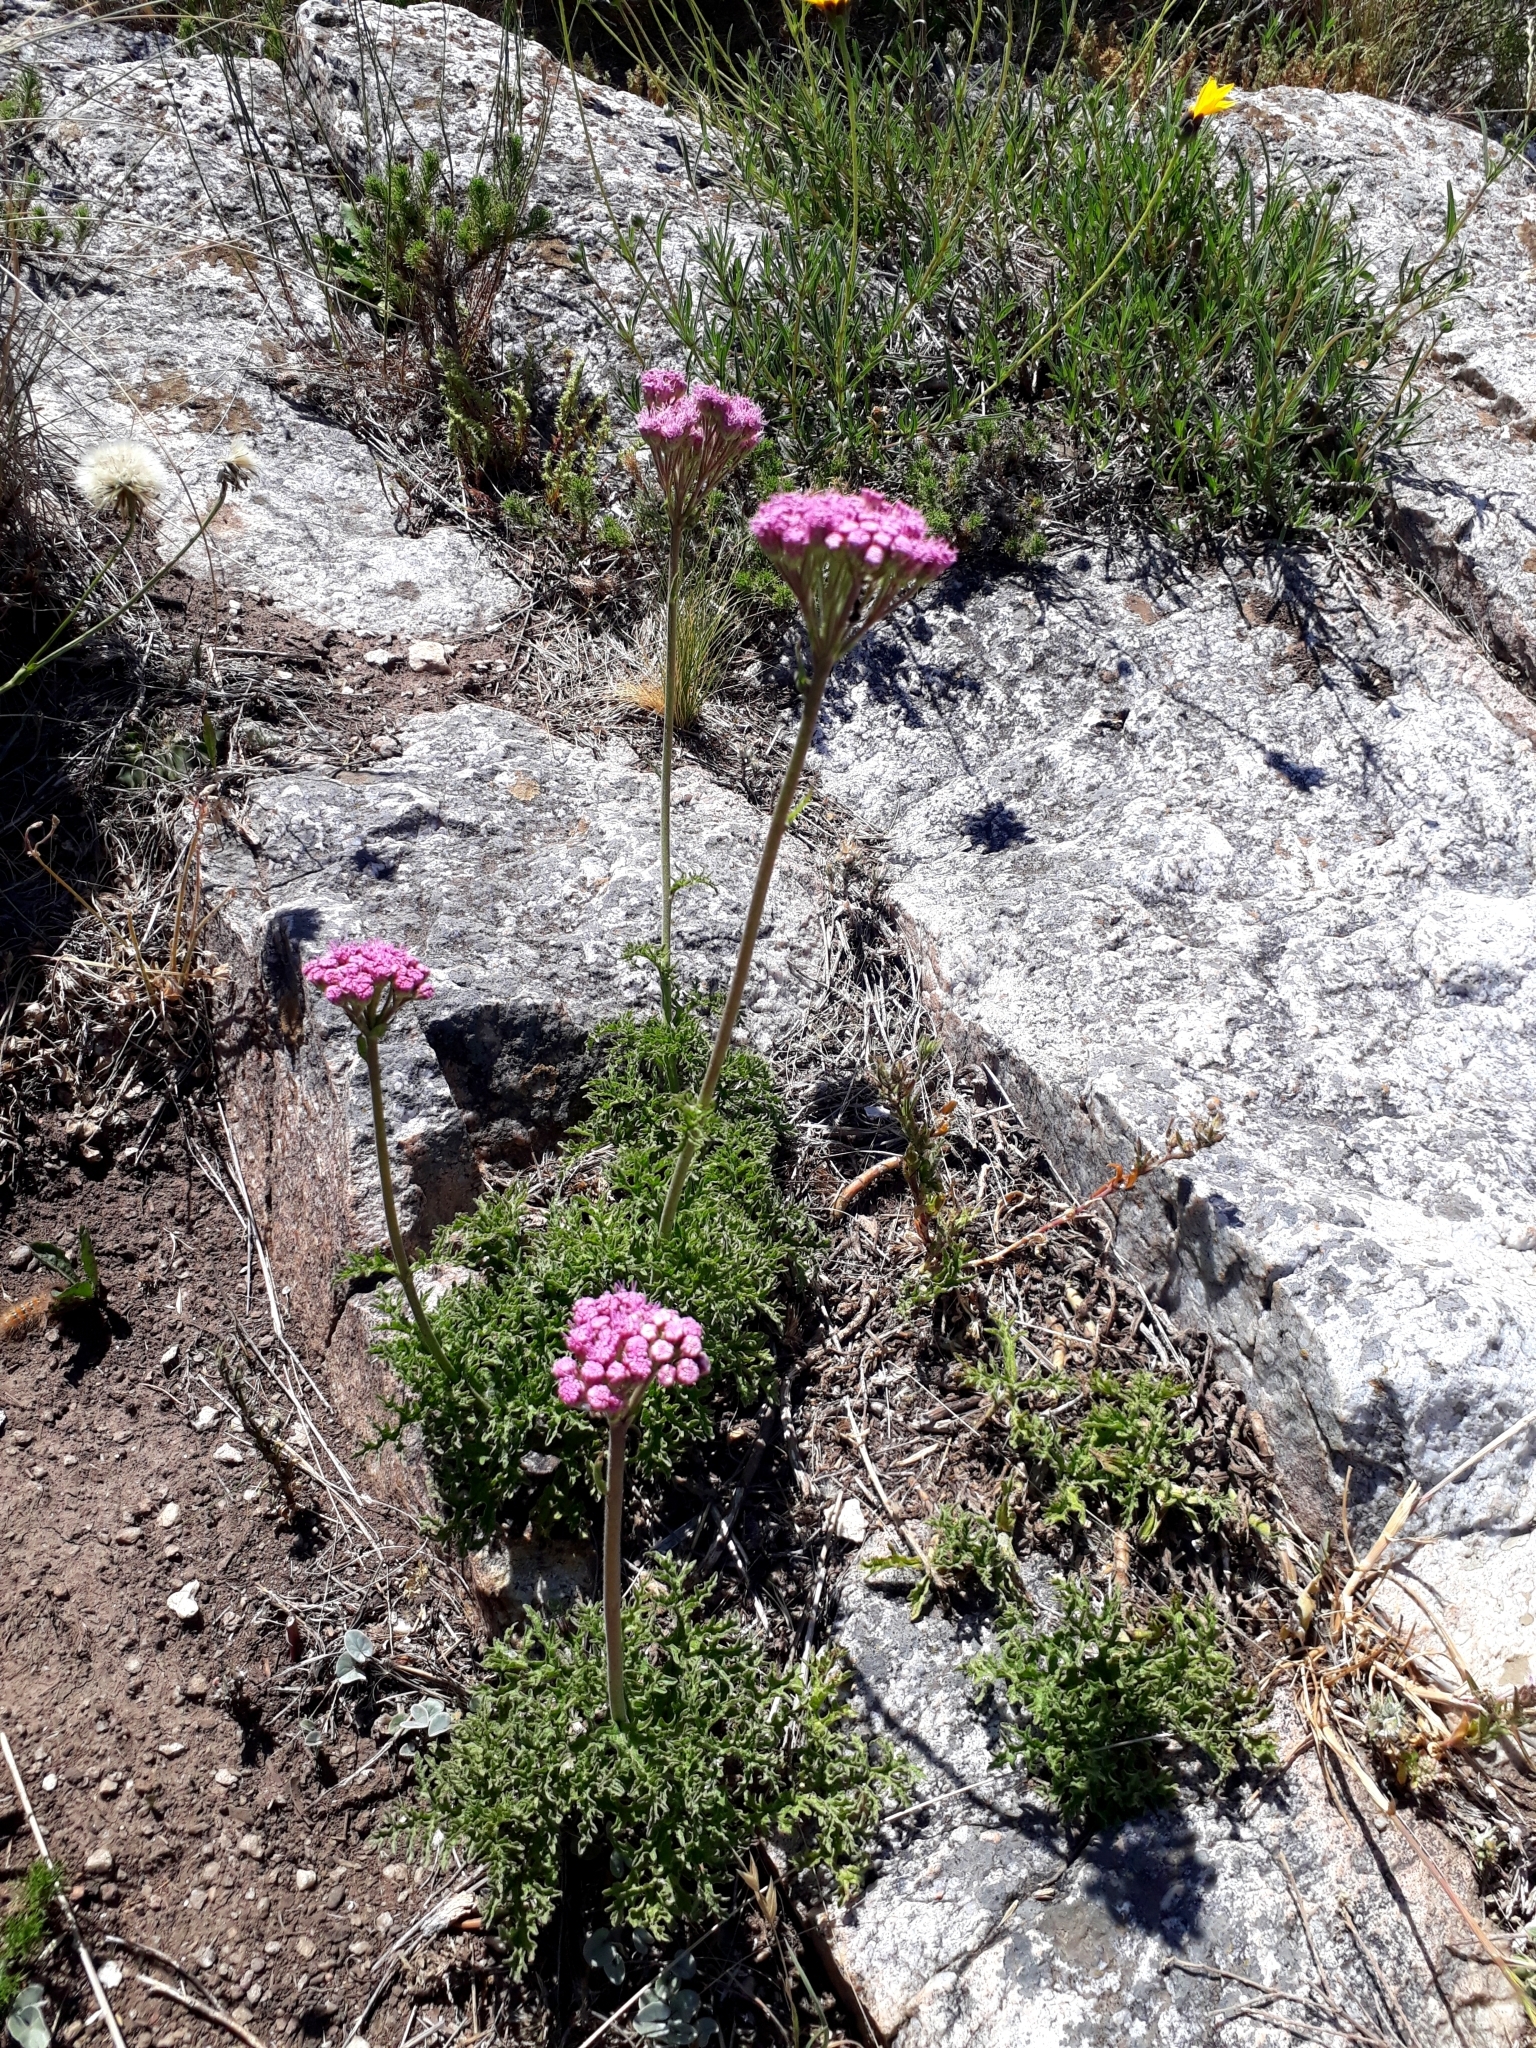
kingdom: Plantae
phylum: Tracheophyta
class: Magnoliopsida
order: Asterales
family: Asteraceae
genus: Gyptis
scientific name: Gyptis tanacetifolia
